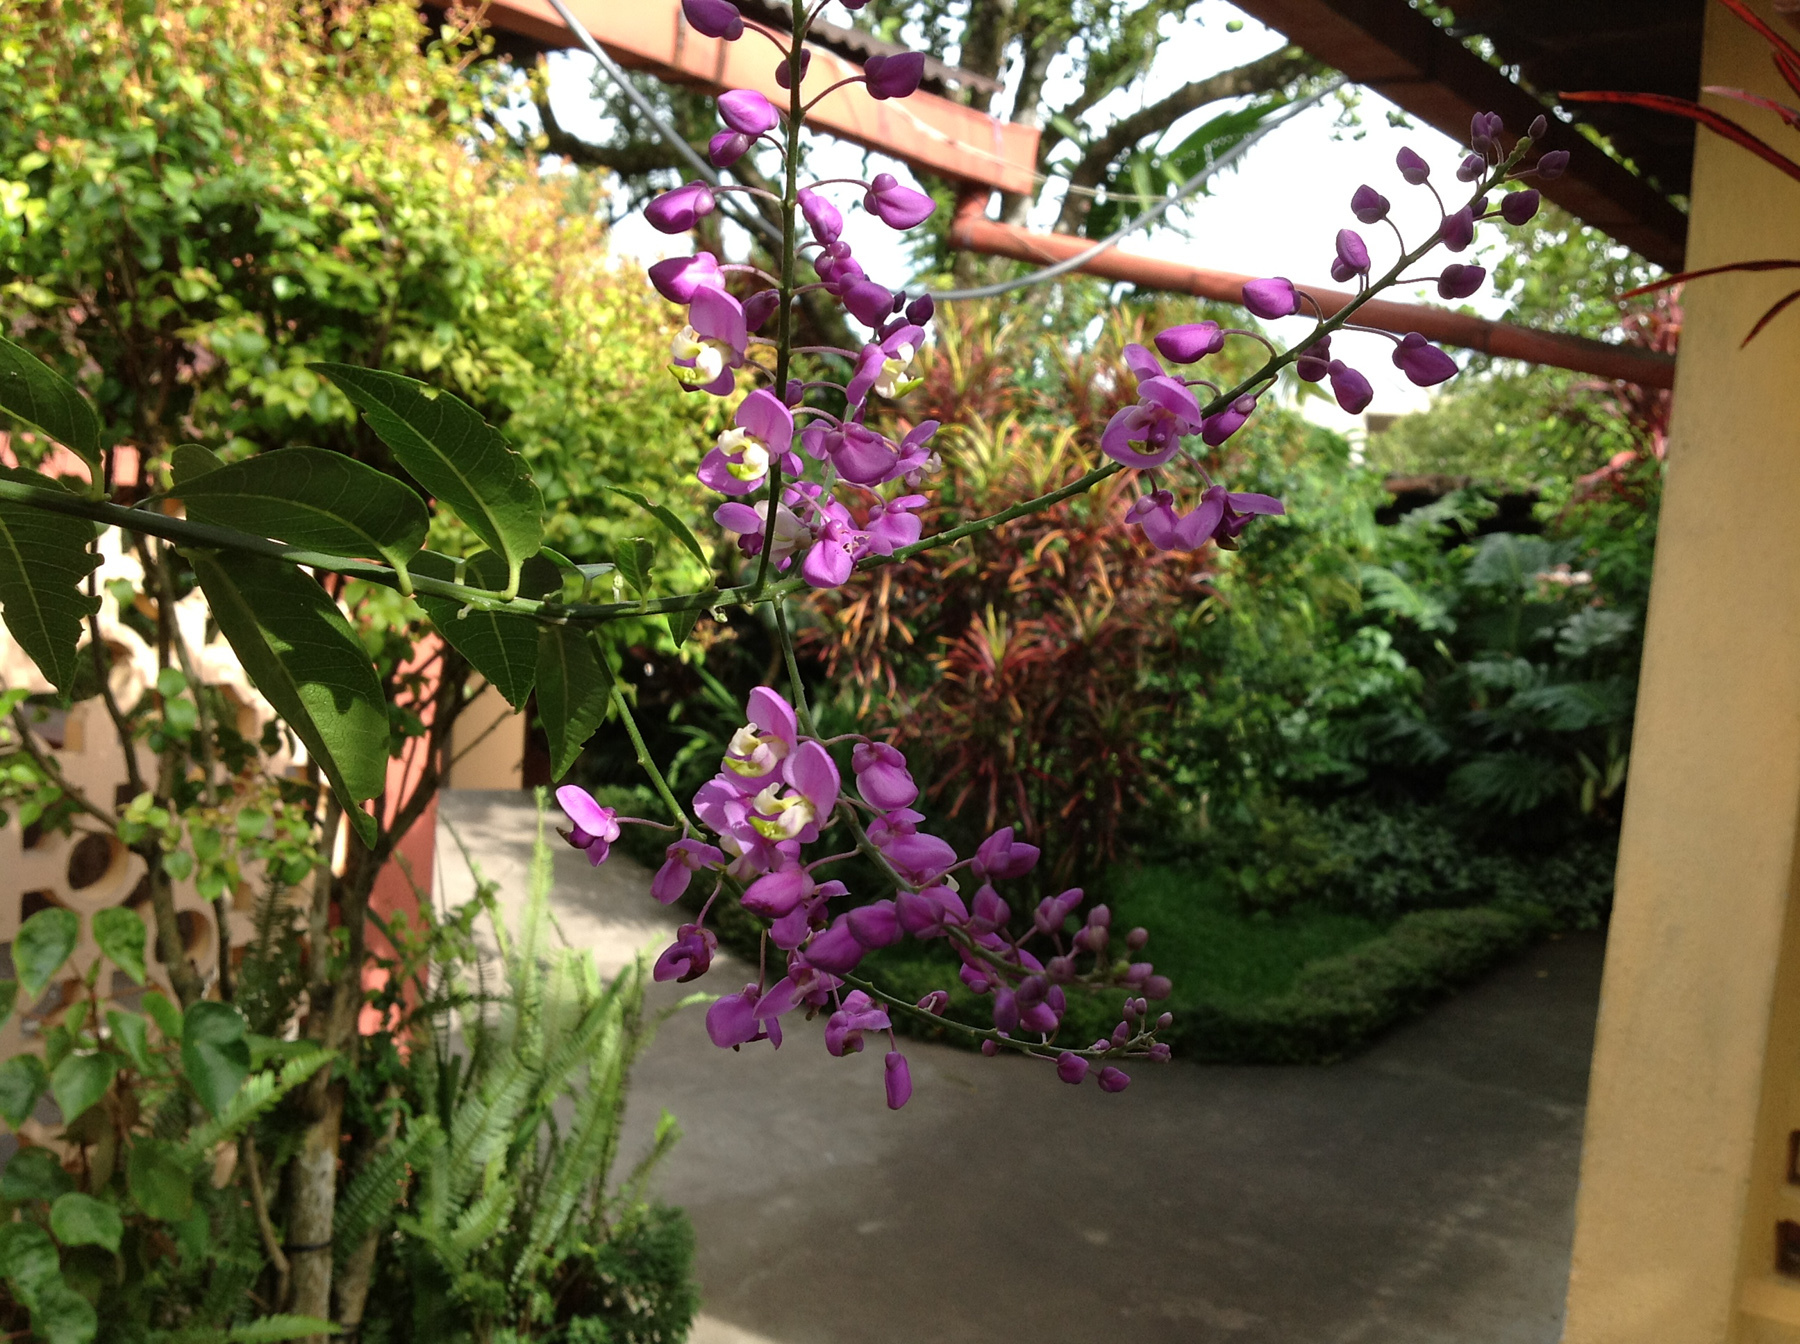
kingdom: Plantae
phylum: Tracheophyta
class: Magnoliopsida
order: Fabales
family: Polygalaceae
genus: Asemeia
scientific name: Asemeia floribunda
